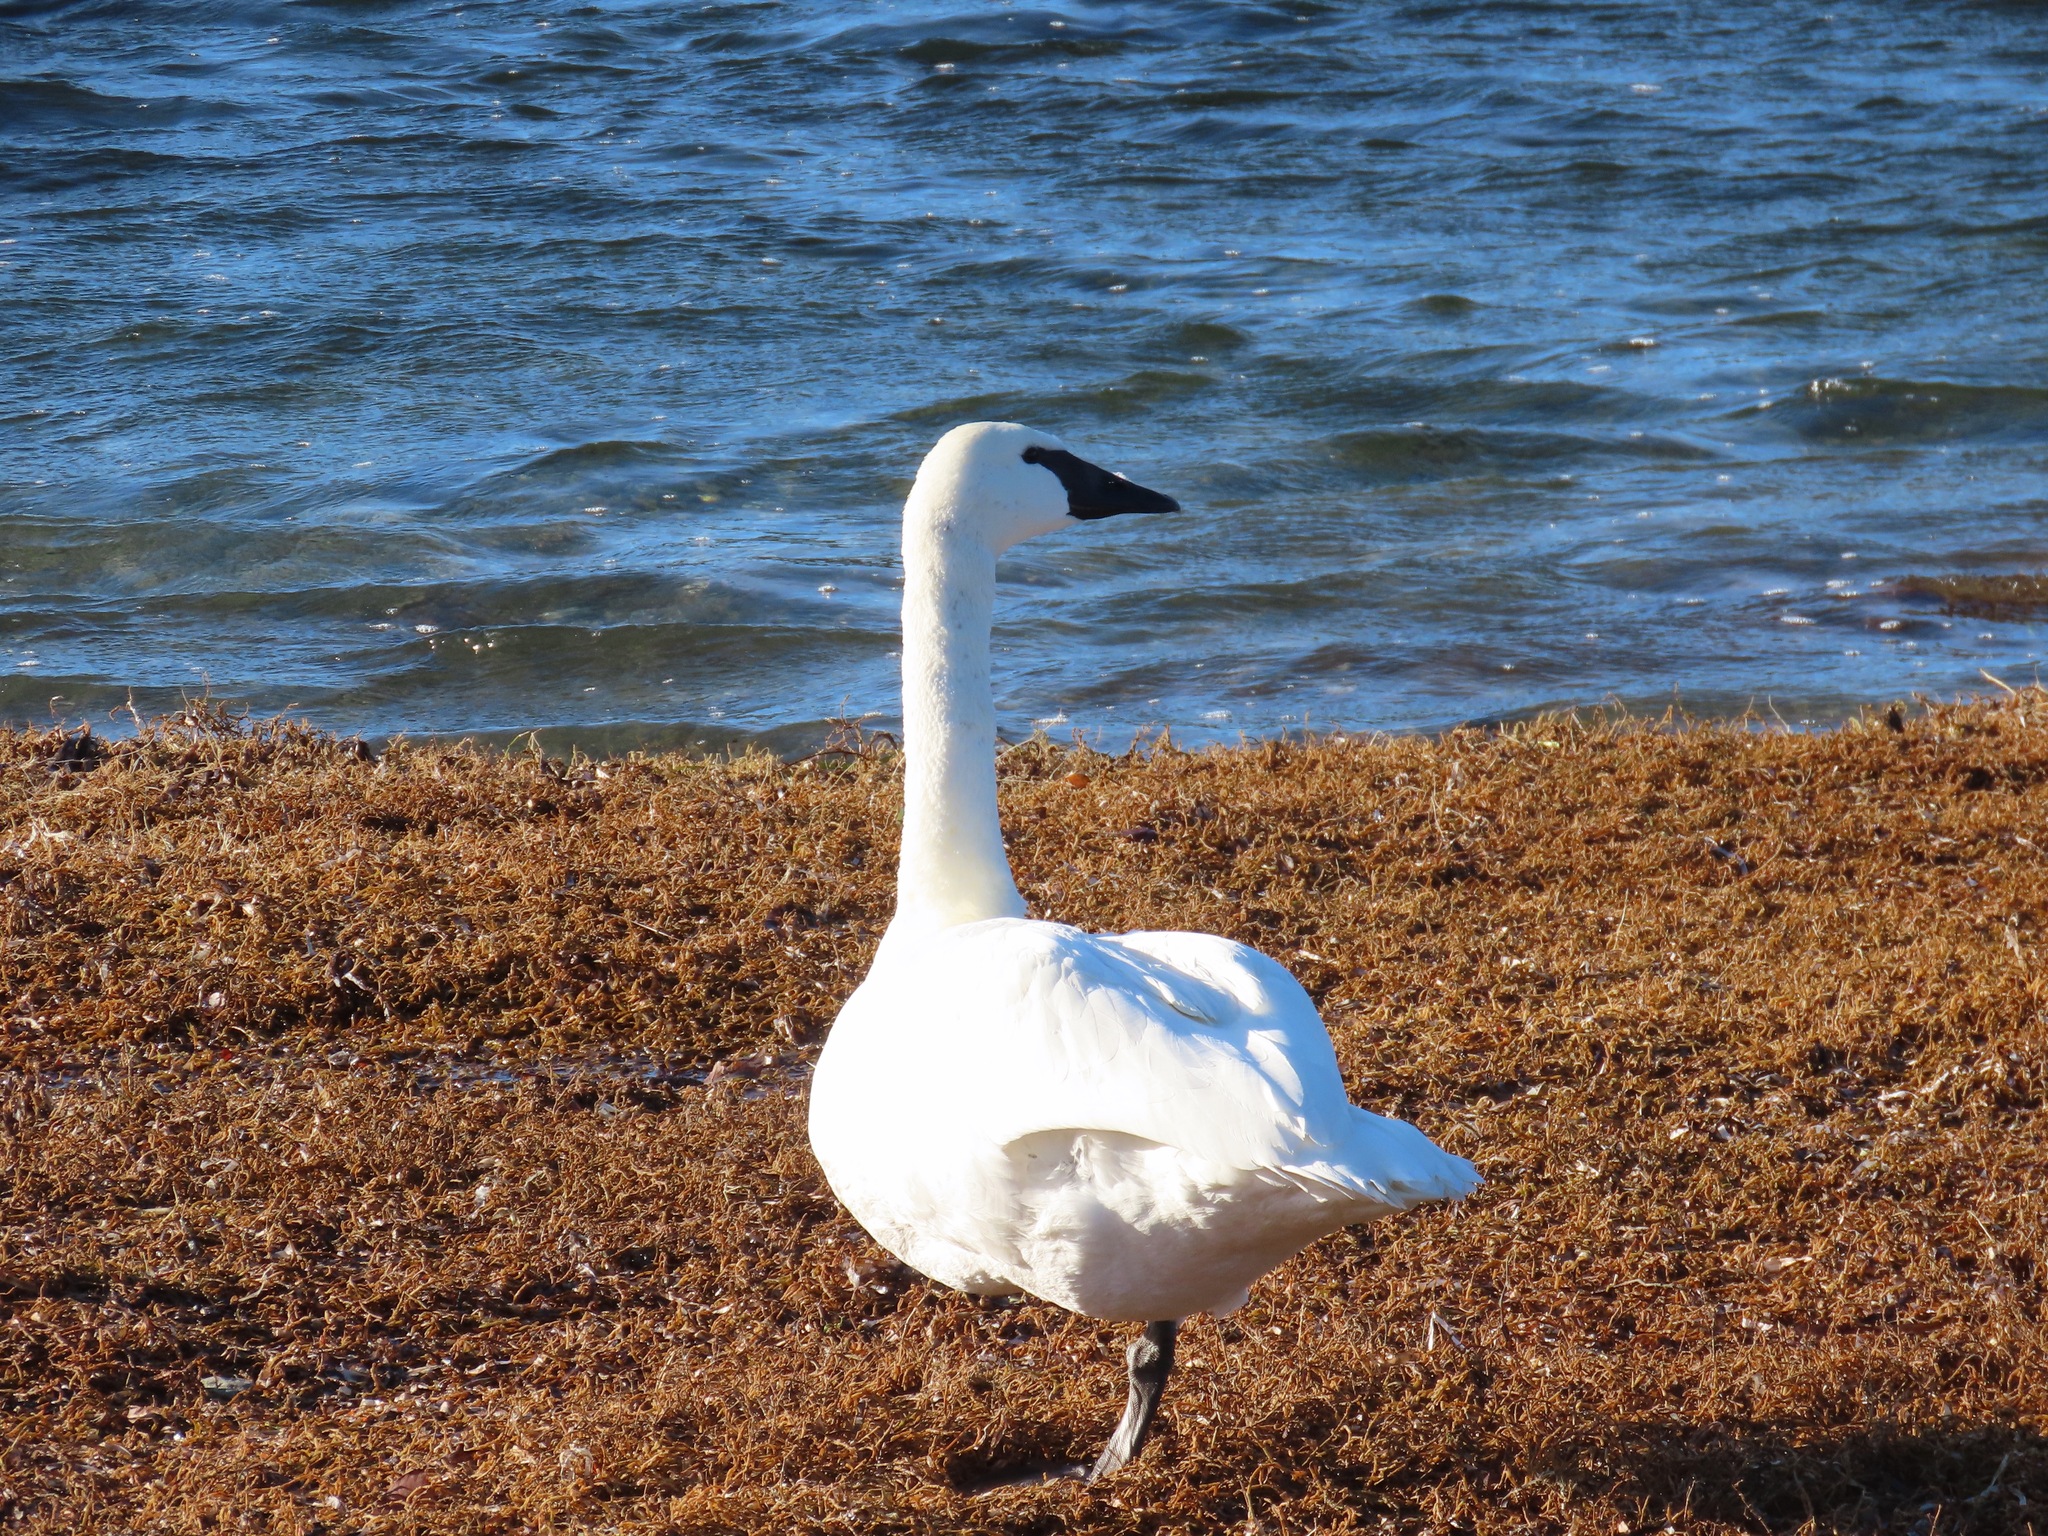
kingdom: Animalia
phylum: Chordata
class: Aves
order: Anseriformes
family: Anatidae
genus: Cygnus
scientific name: Cygnus buccinator
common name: Trumpeter swan
